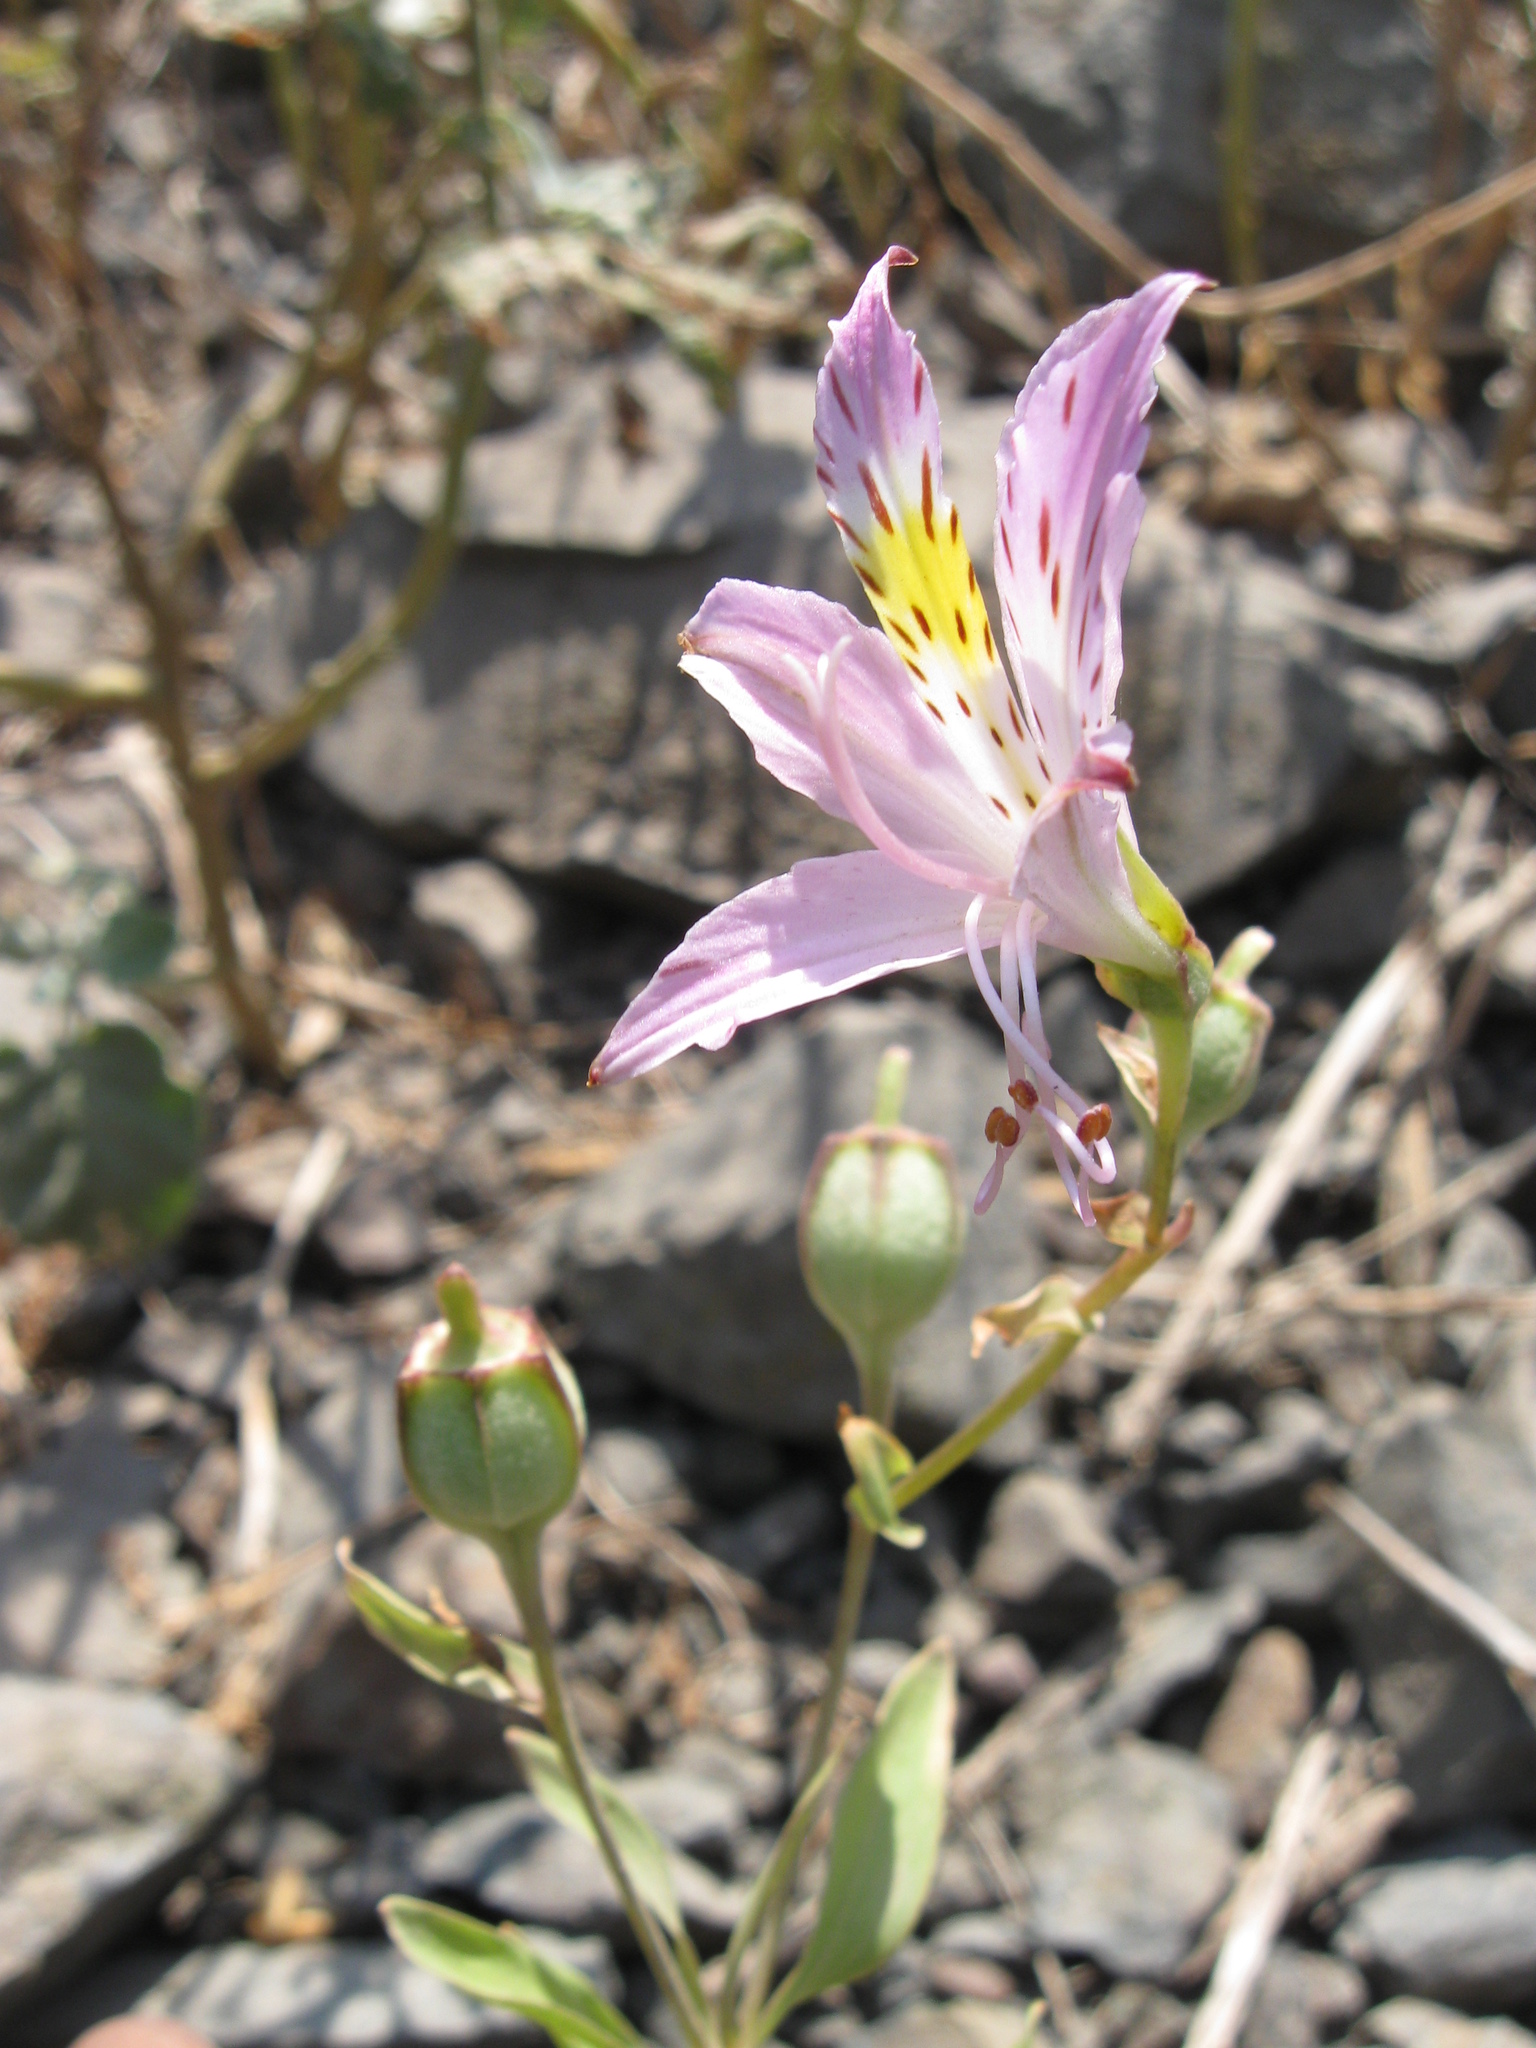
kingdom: Plantae
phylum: Tracheophyta
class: Liliopsida
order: Liliales
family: Alstroemeriaceae
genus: Alstroemeria
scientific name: Alstroemeria chorillensis
